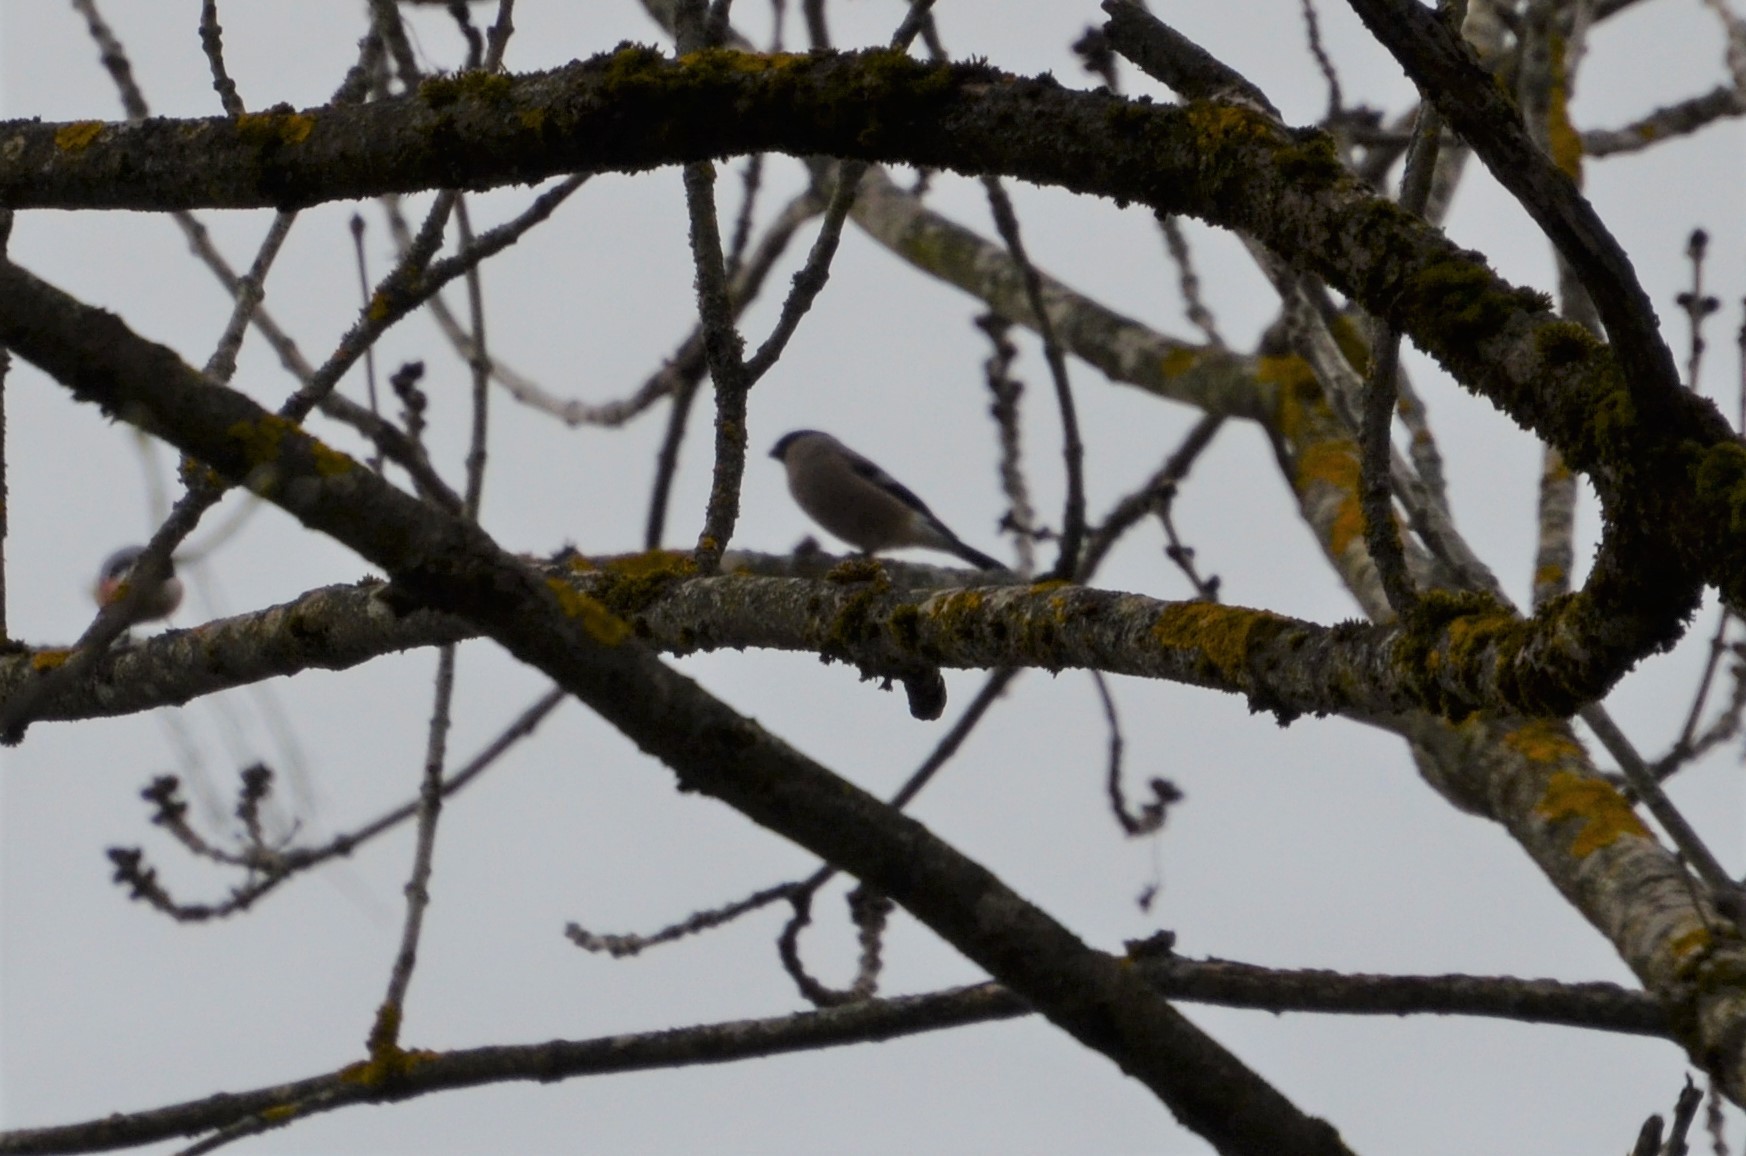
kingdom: Animalia
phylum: Chordata
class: Aves
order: Passeriformes
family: Fringillidae
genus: Pyrrhula
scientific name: Pyrrhula pyrrhula
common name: Eurasian bullfinch
